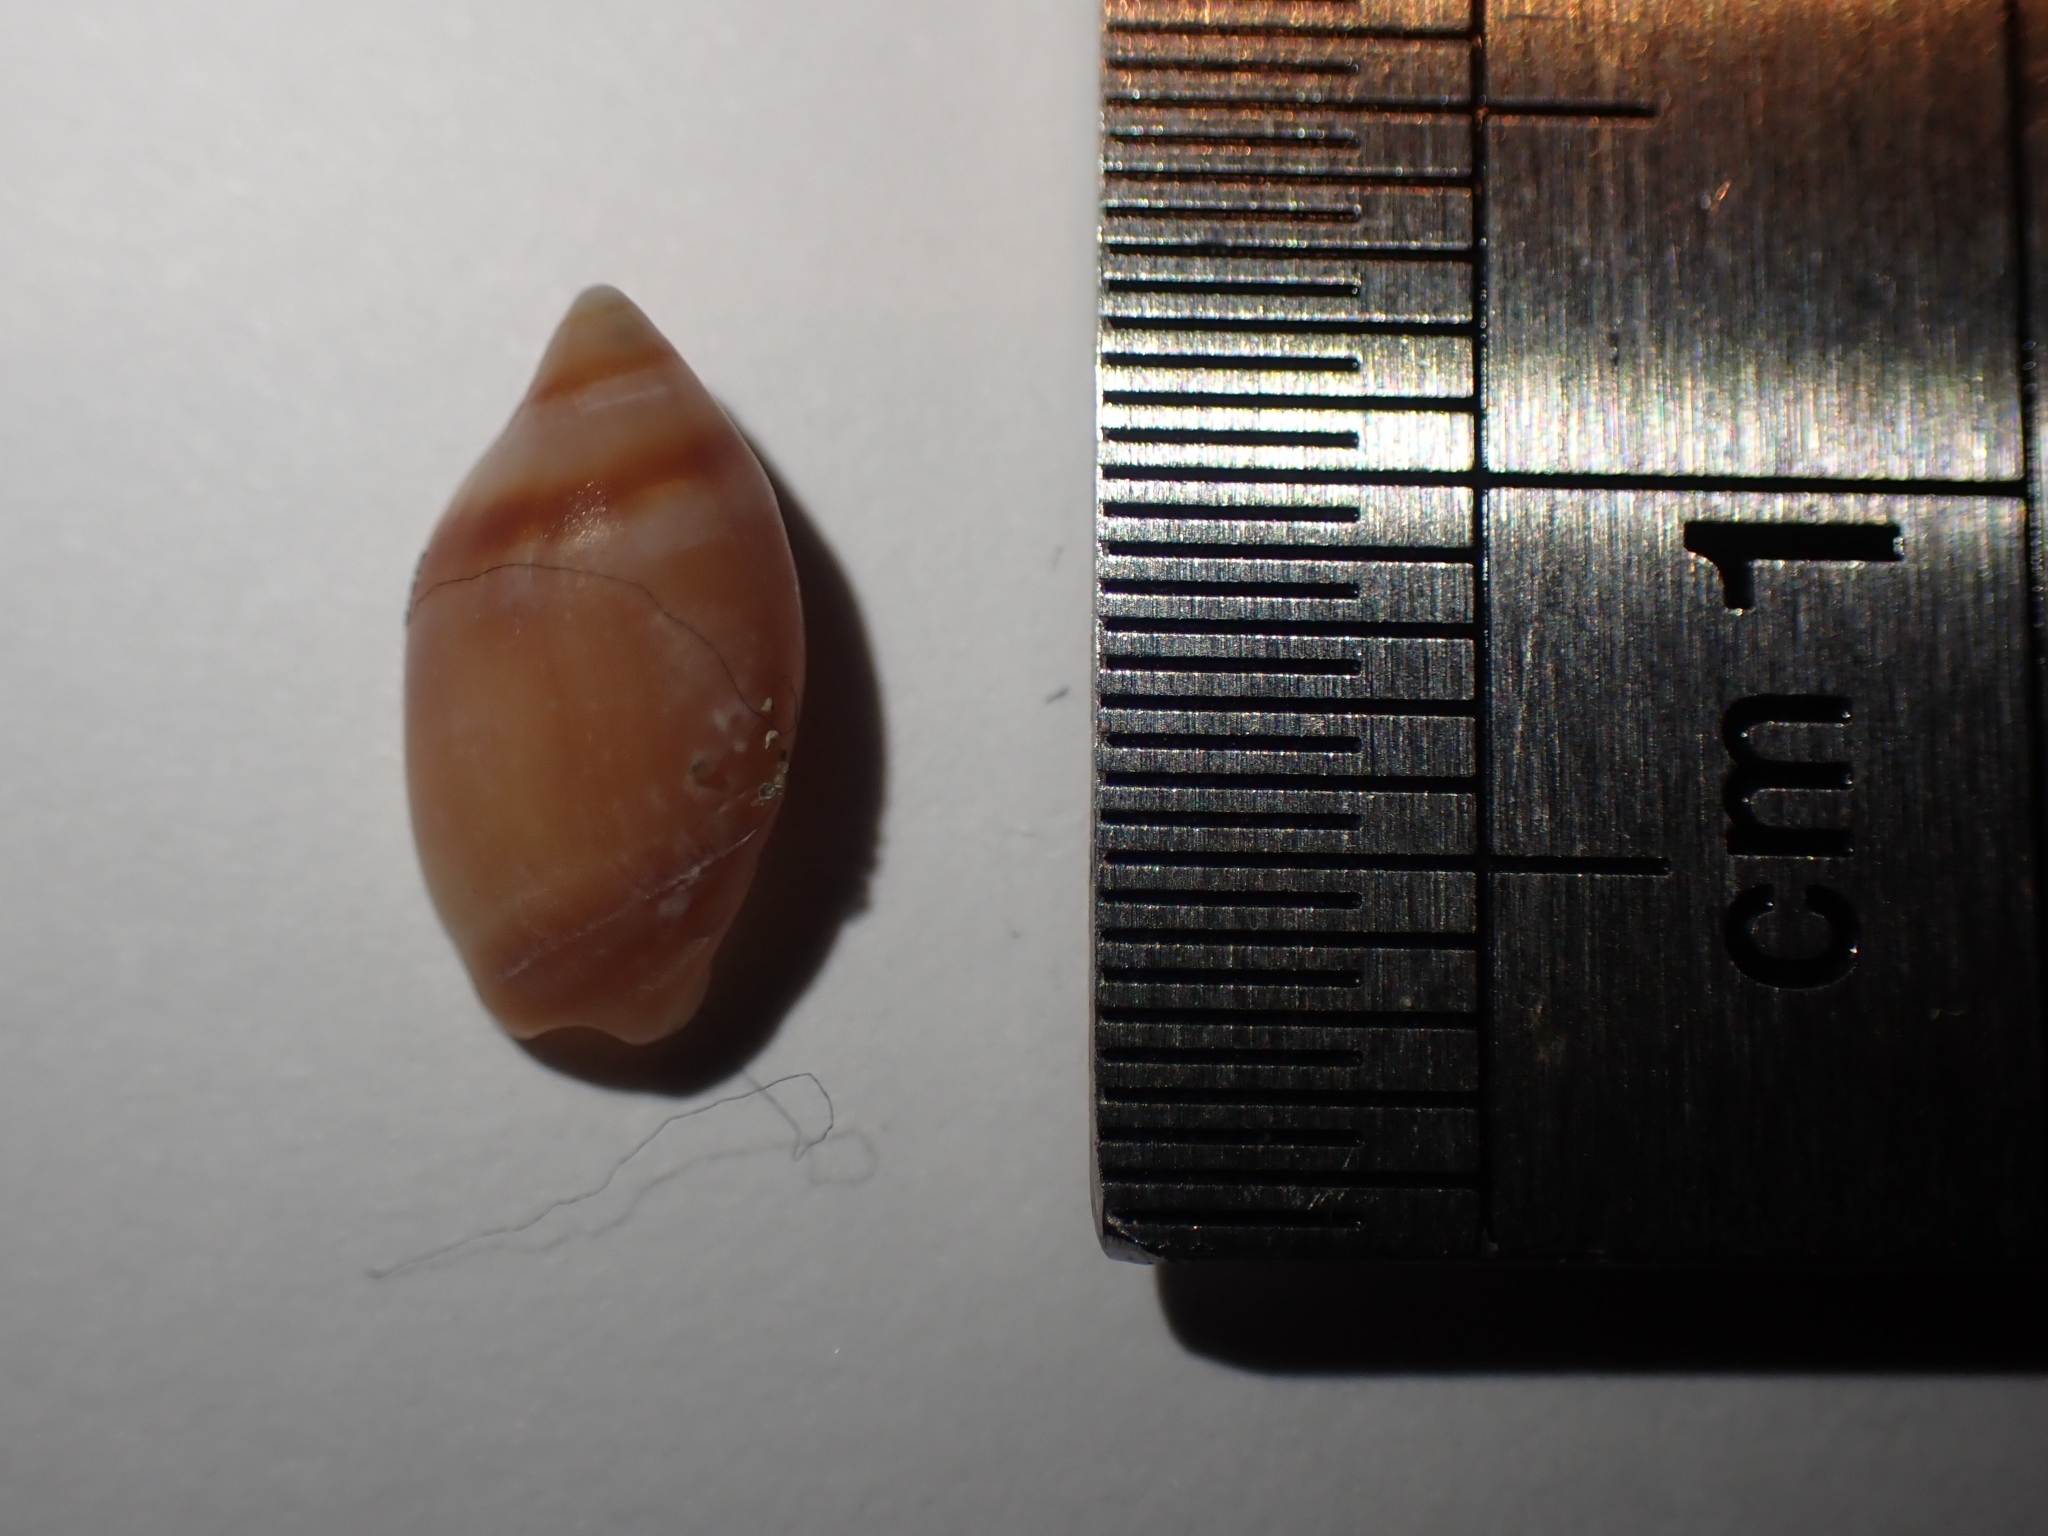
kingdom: Animalia
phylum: Mollusca
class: Gastropoda
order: Neogastropoda
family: Ancillariidae
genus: Amalda
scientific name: Amalda depressa
